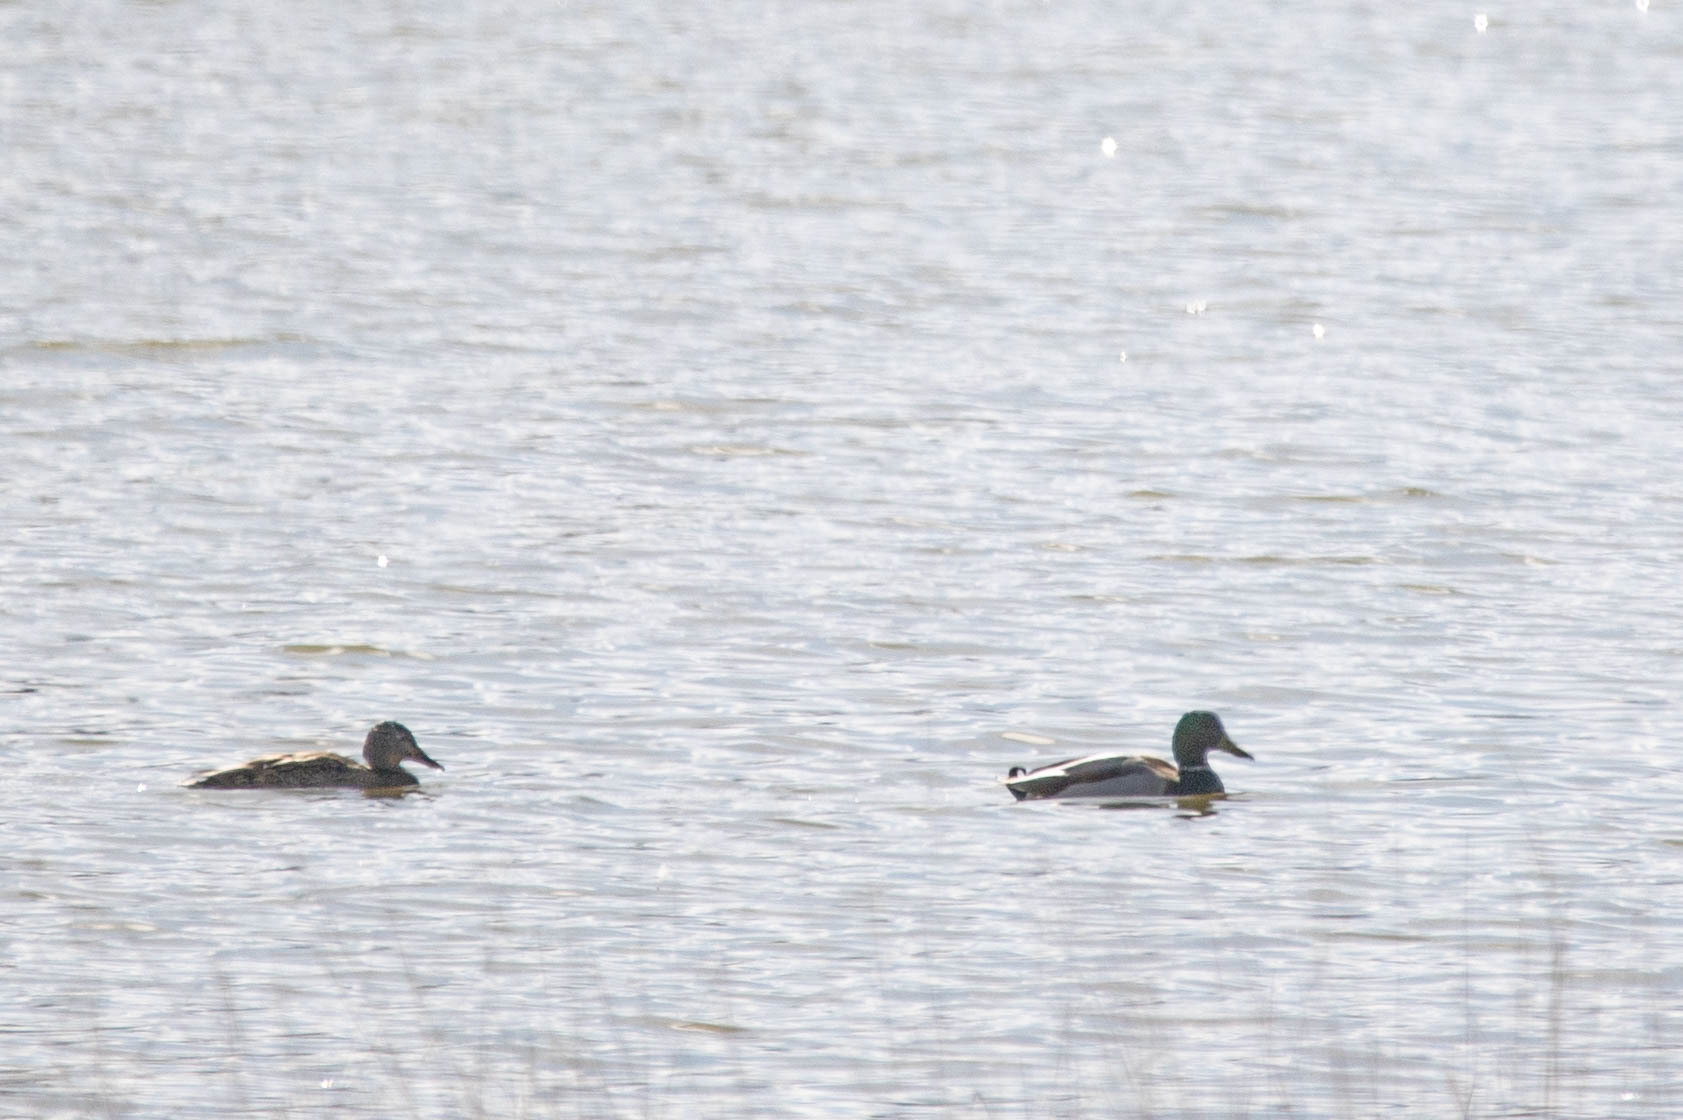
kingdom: Animalia
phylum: Chordata
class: Aves
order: Anseriformes
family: Anatidae
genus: Anas
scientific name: Anas platyrhynchos
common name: Mallard
